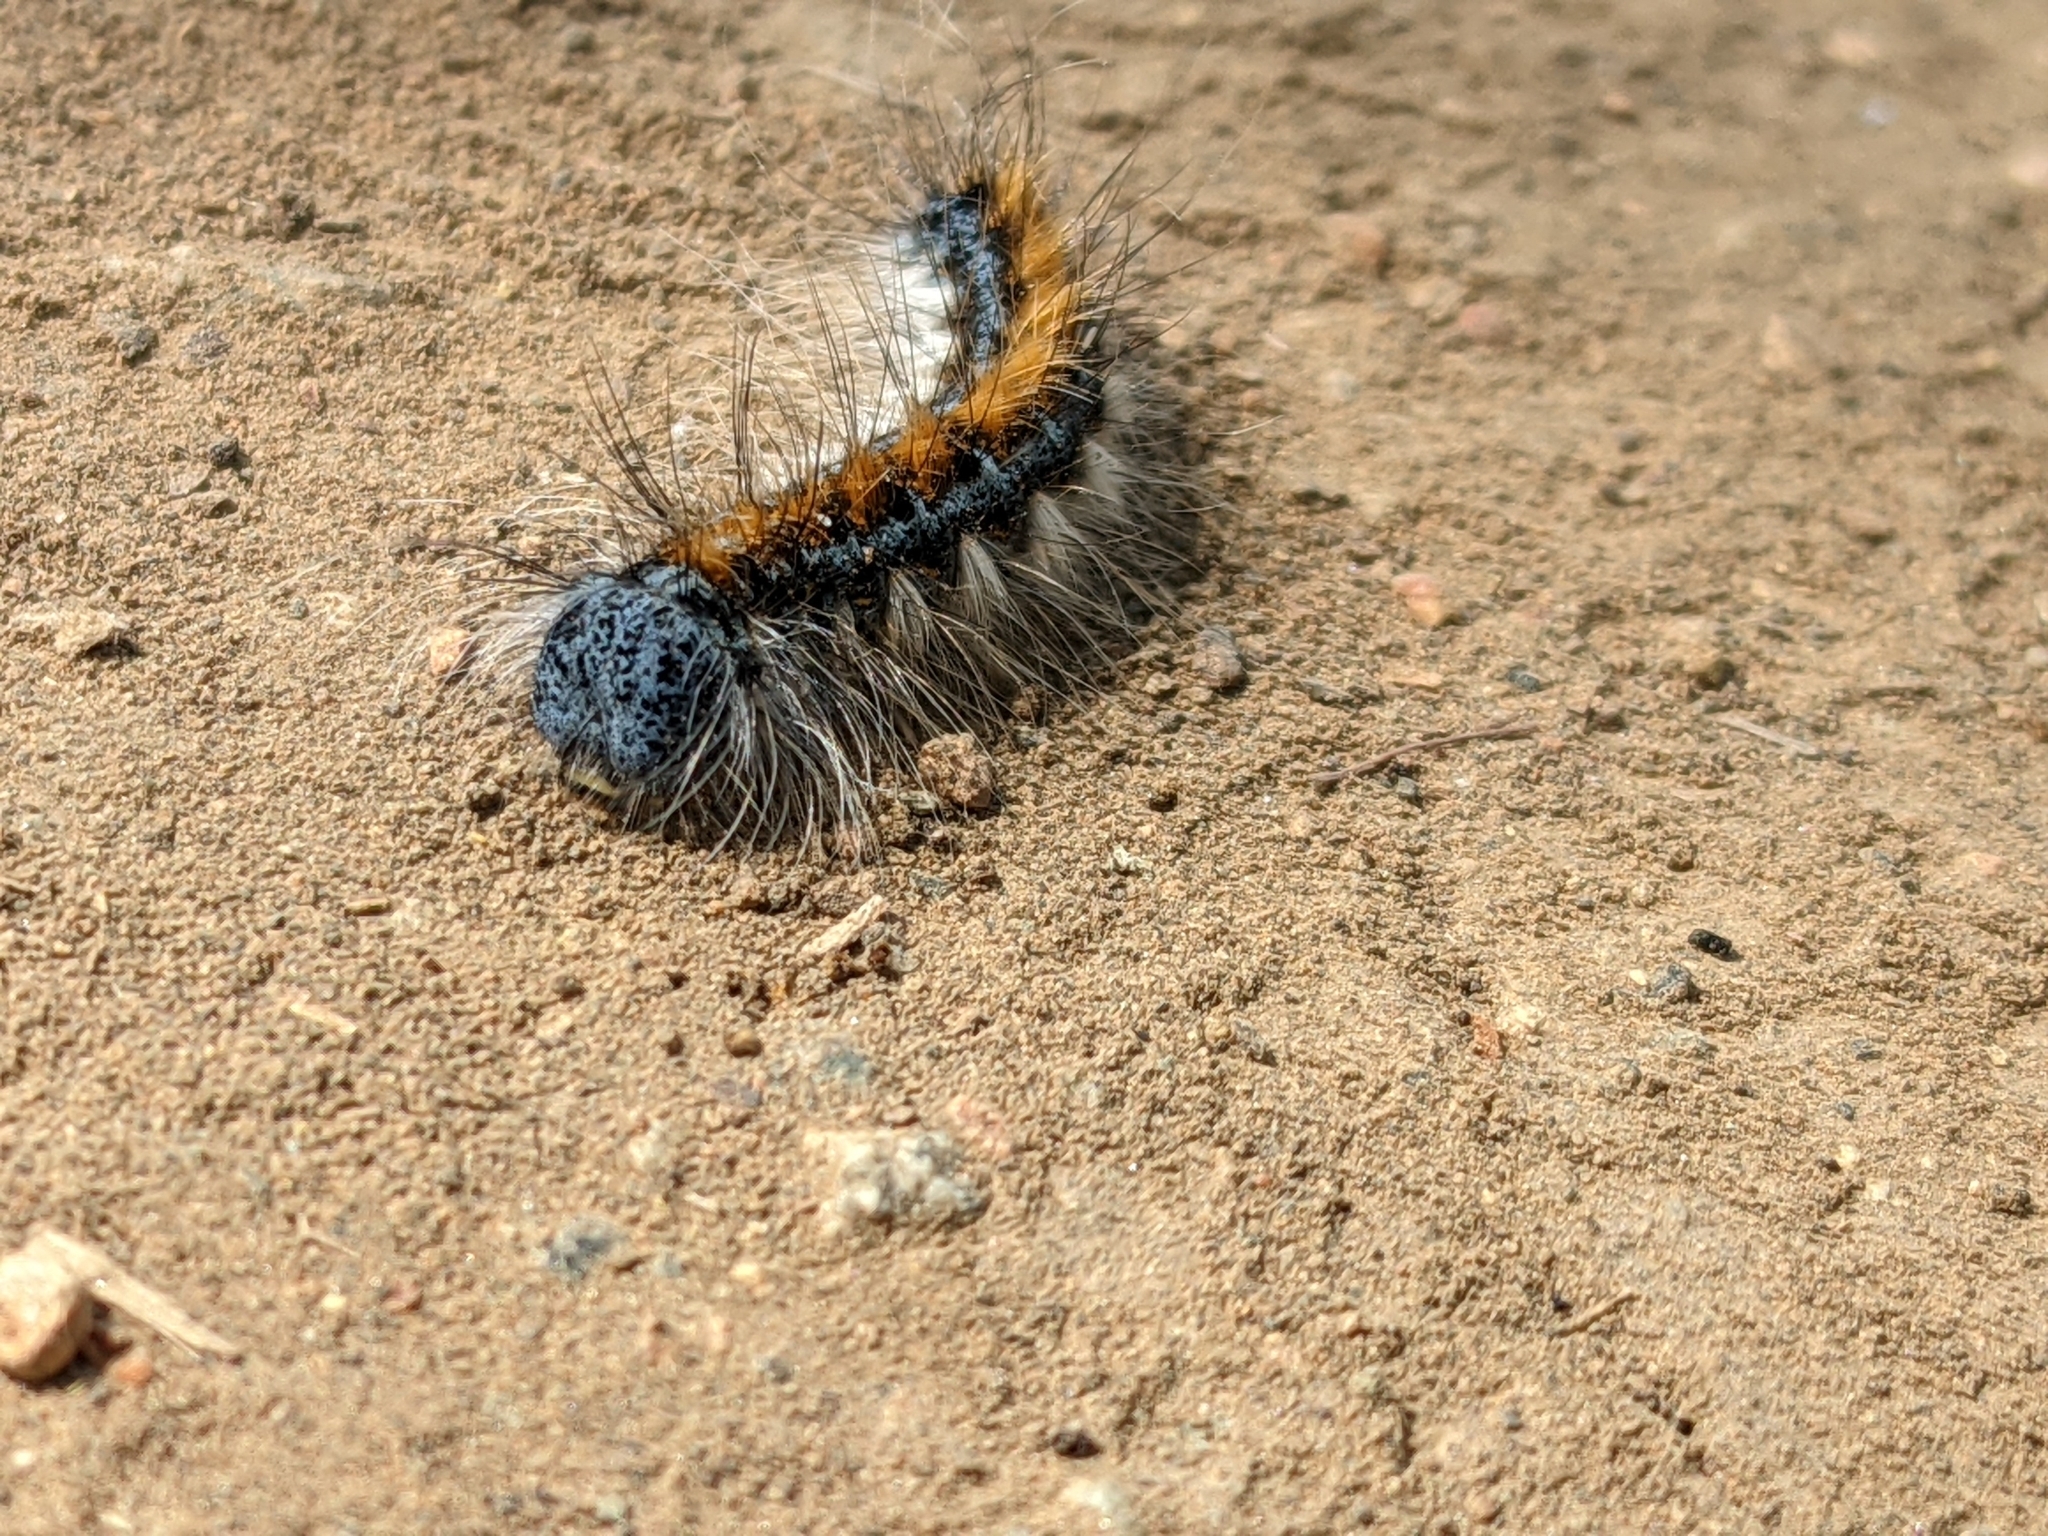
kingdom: Animalia
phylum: Arthropoda
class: Insecta
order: Lepidoptera
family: Lasiocampidae
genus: Malacosoma
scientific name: Malacosoma constricta
